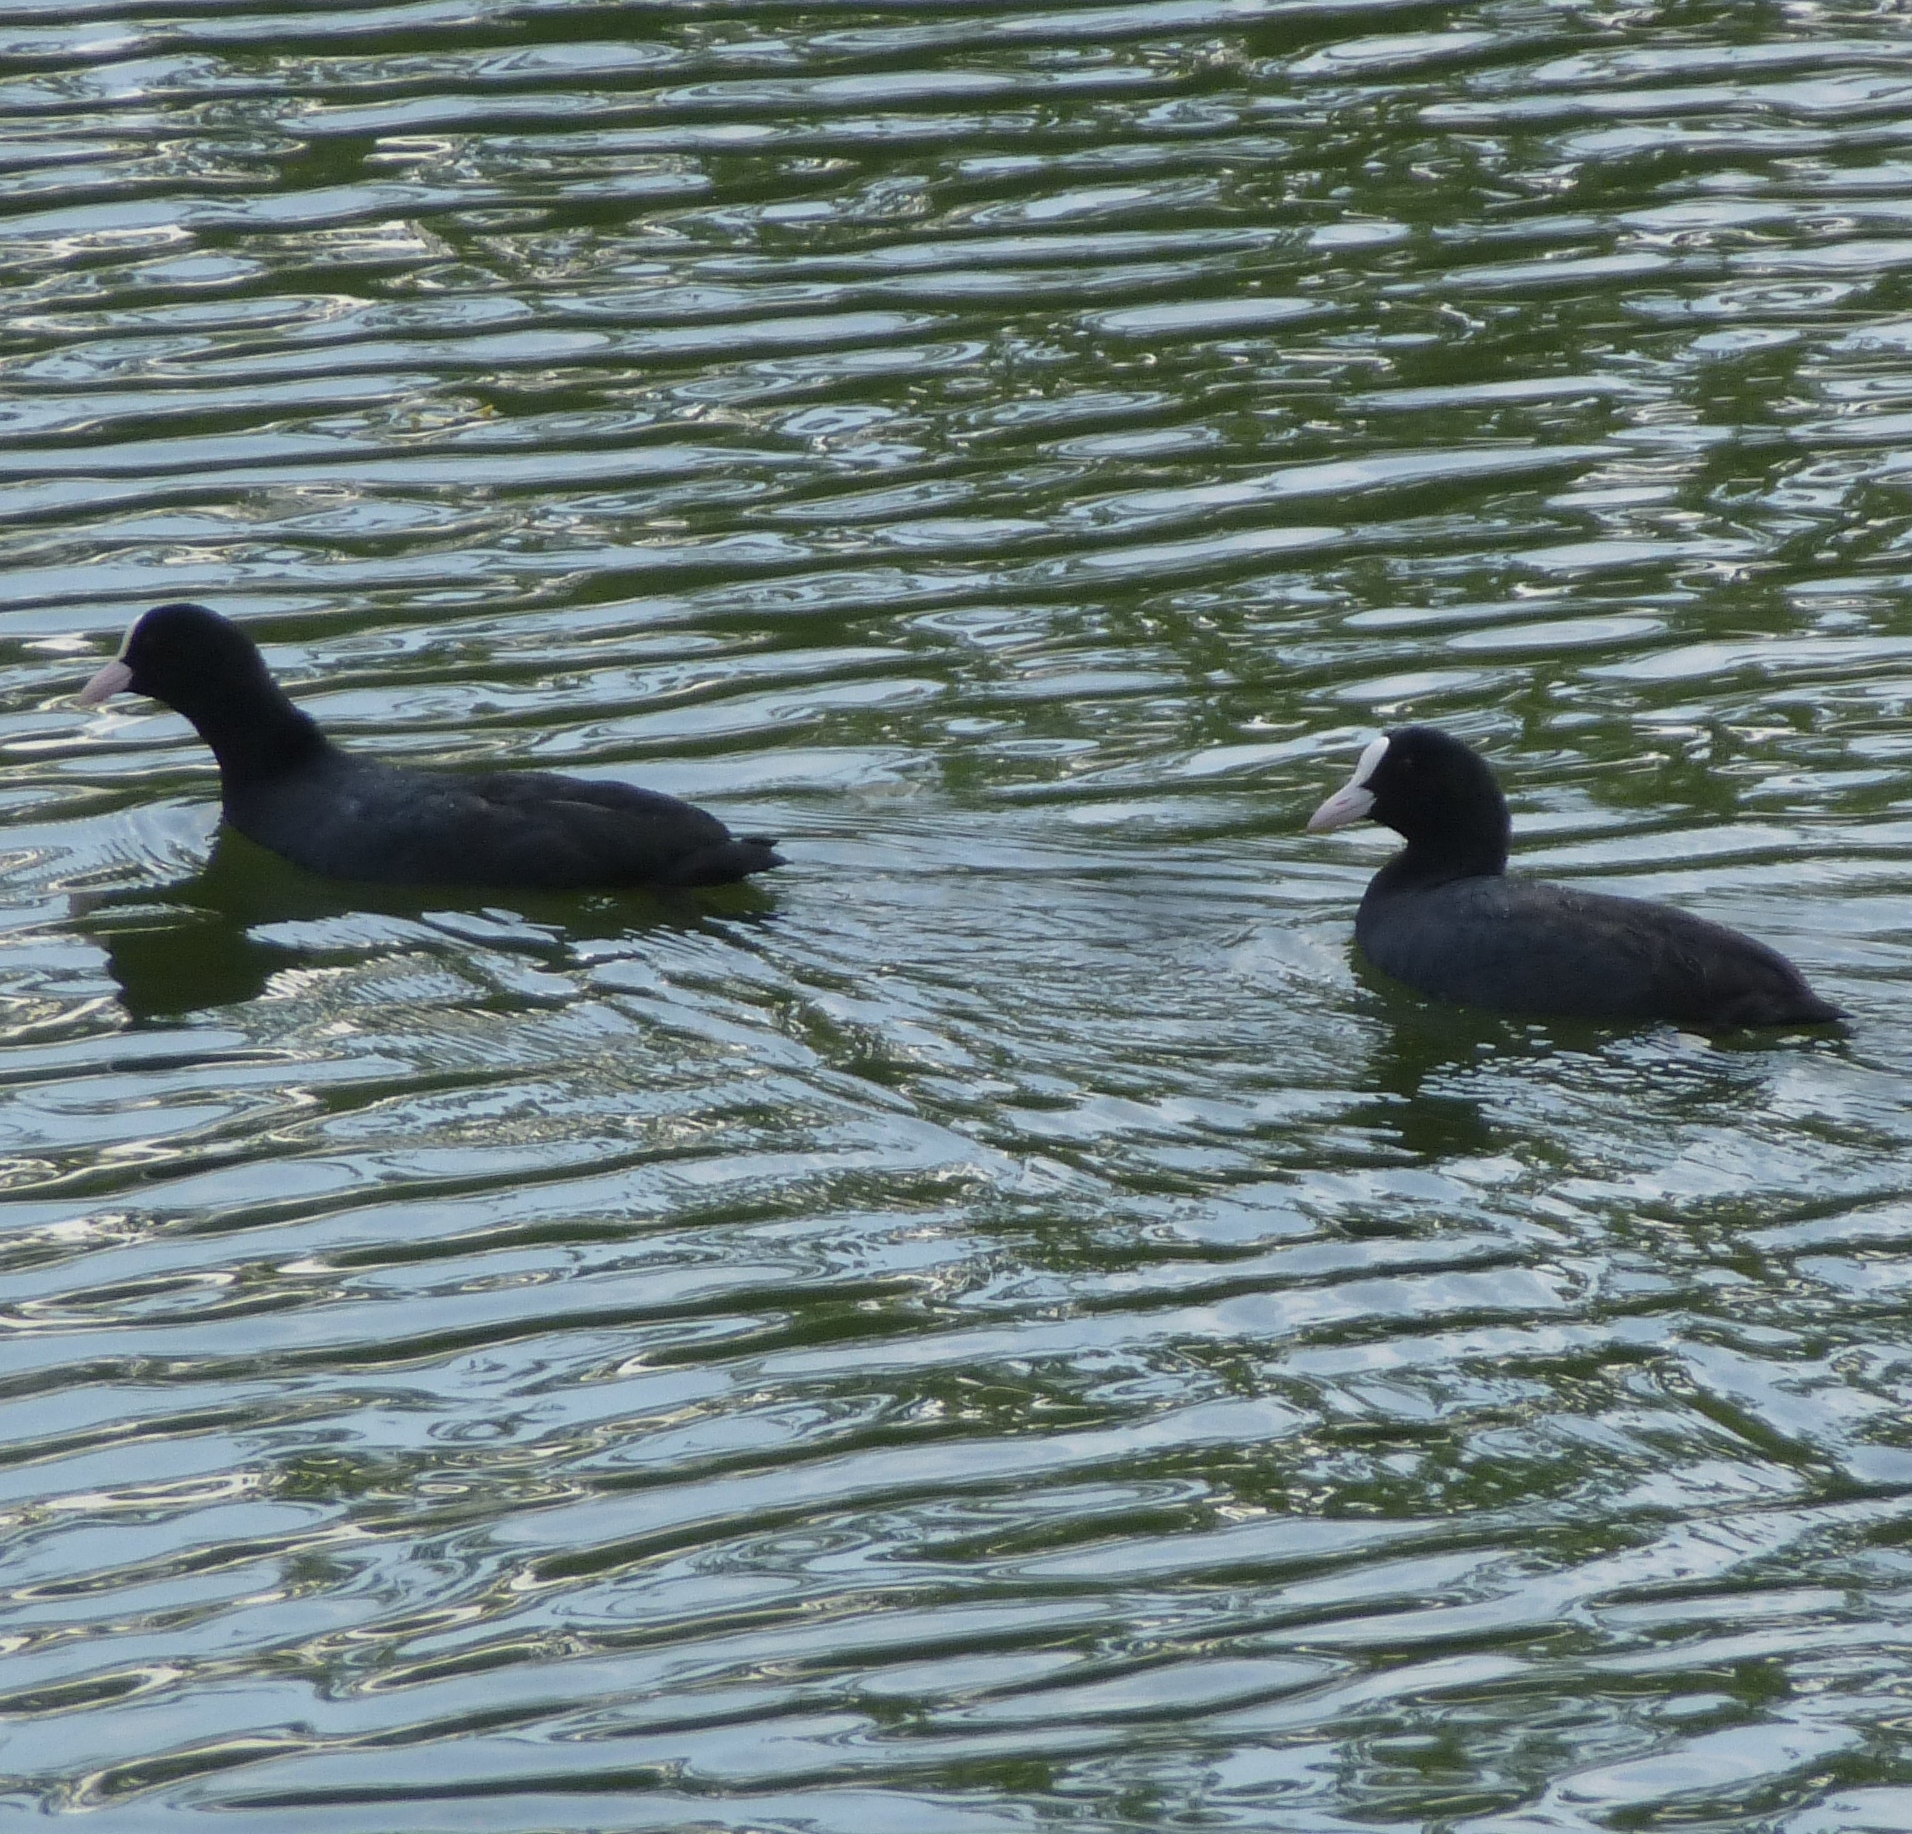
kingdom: Animalia
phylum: Chordata
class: Aves
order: Gruiformes
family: Rallidae
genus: Fulica
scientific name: Fulica atra
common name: Eurasian coot
